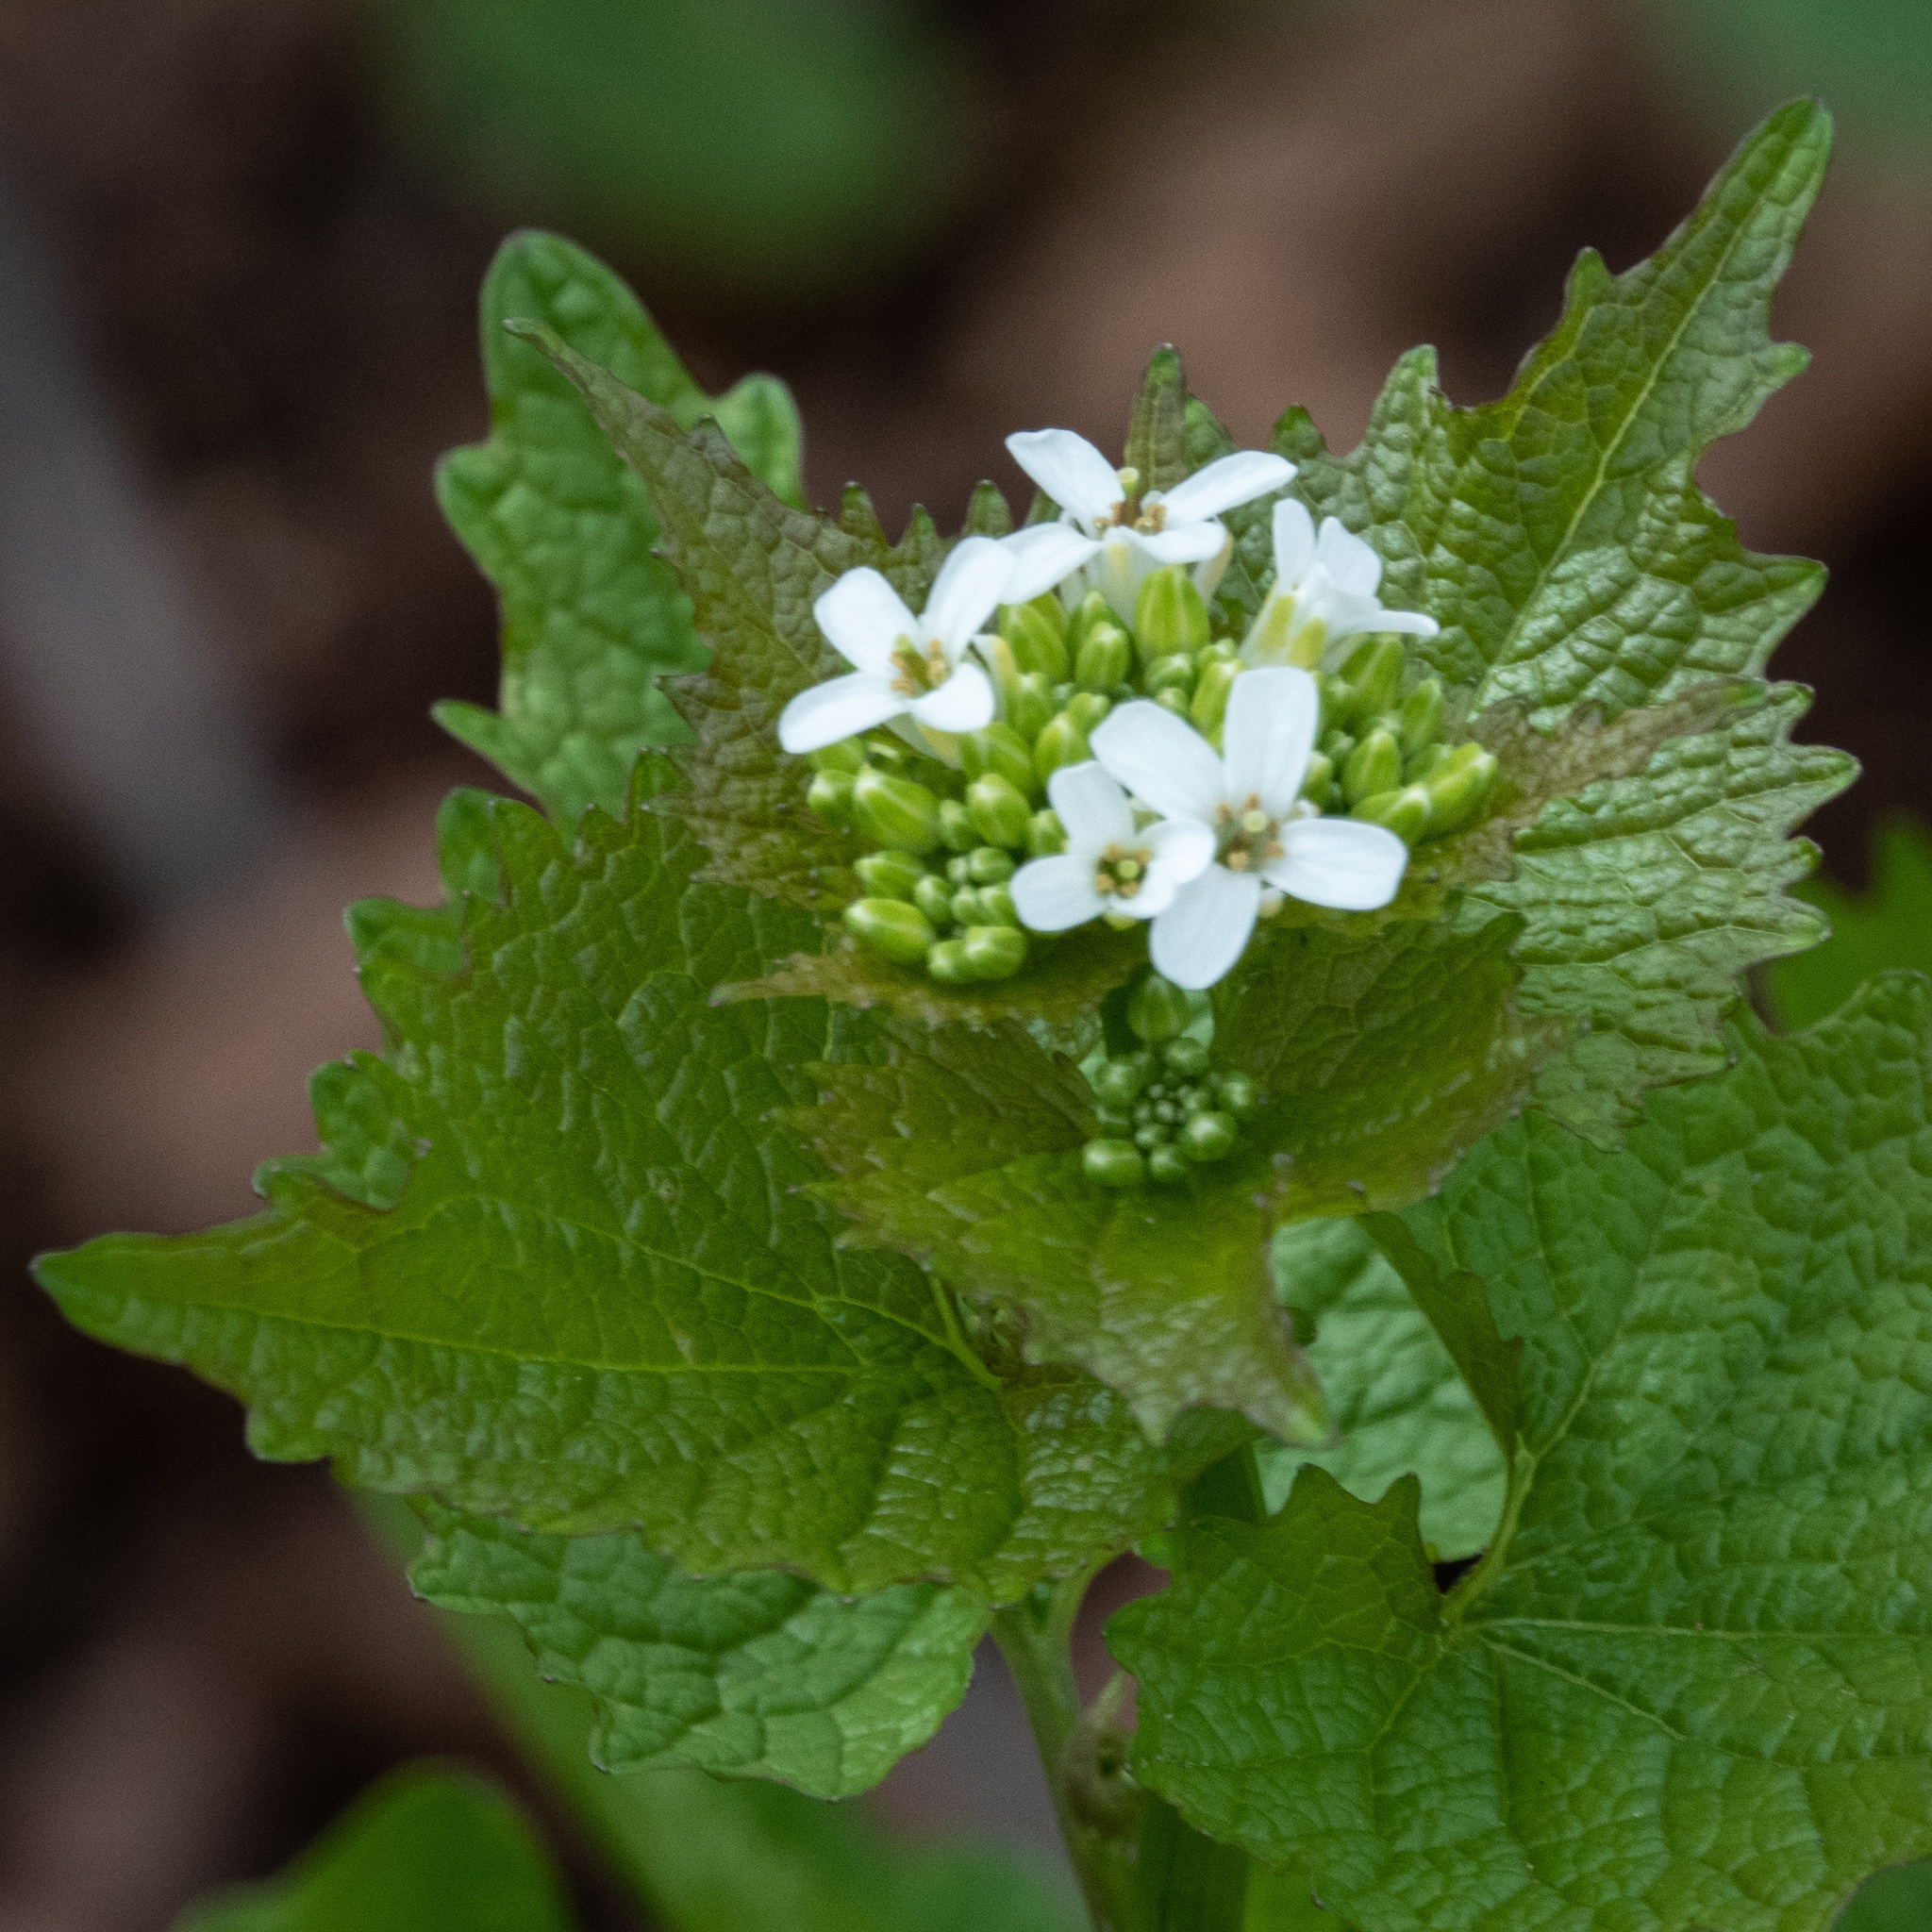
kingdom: Plantae
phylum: Tracheophyta
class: Magnoliopsida
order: Brassicales
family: Brassicaceae
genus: Alliaria
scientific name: Alliaria petiolata
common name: Garlic mustard
